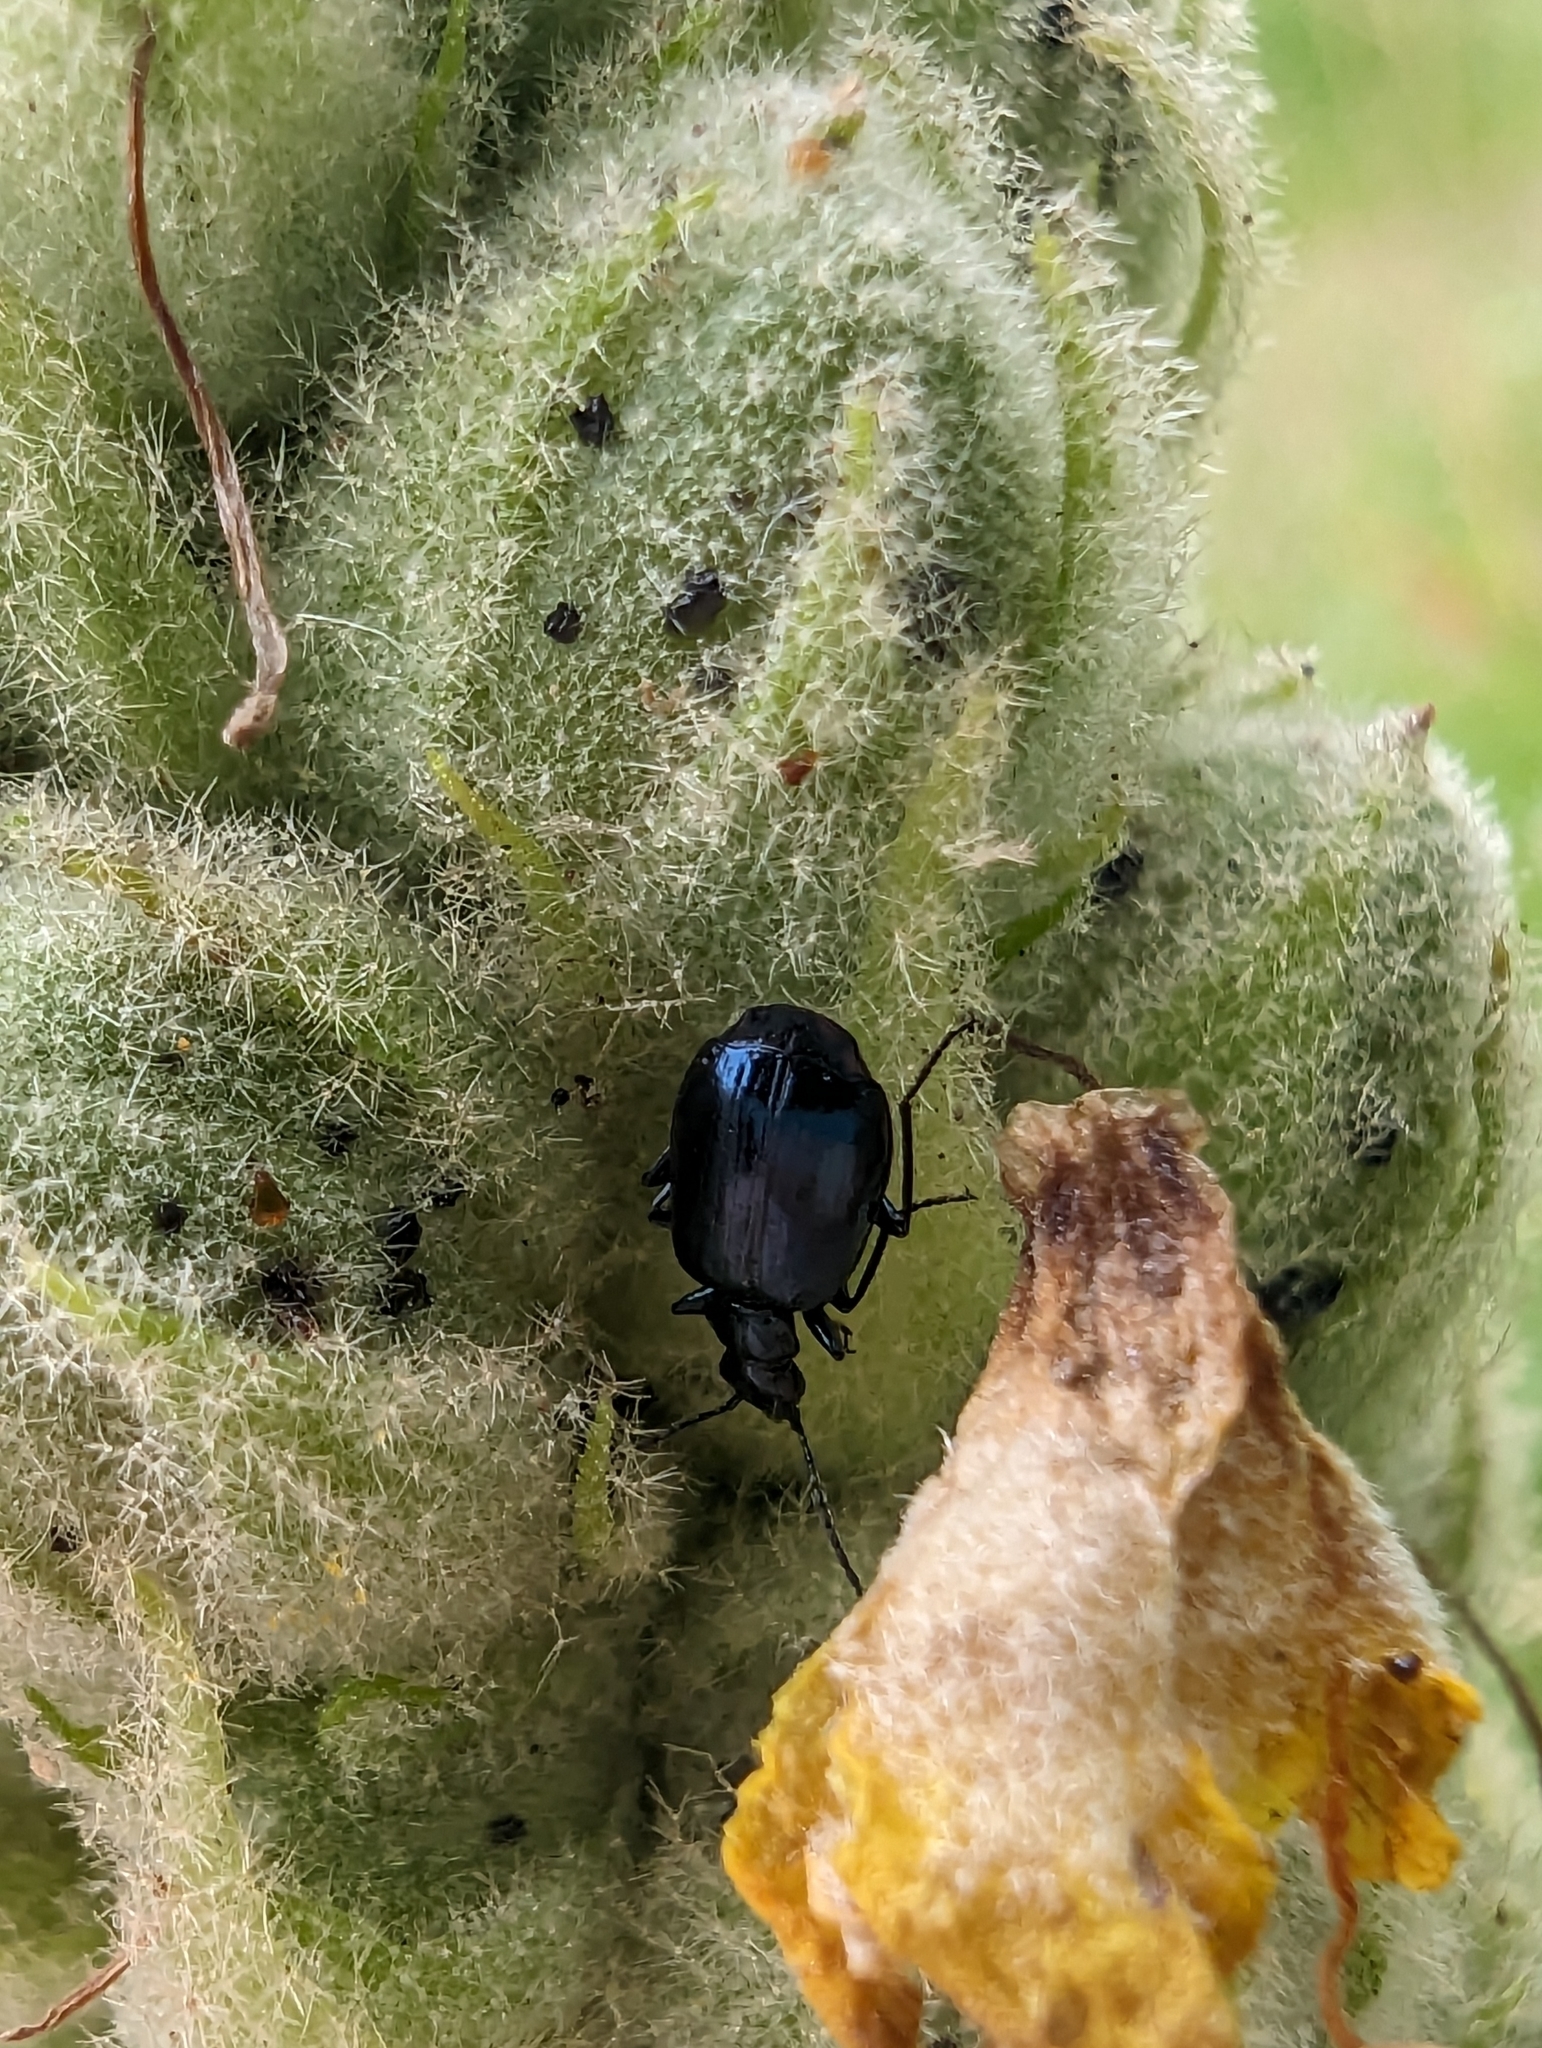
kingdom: Animalia
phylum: Arthropoda
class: Insecta
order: Coleoptera
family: Carabidae
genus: Lebia
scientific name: Lebia moesta
